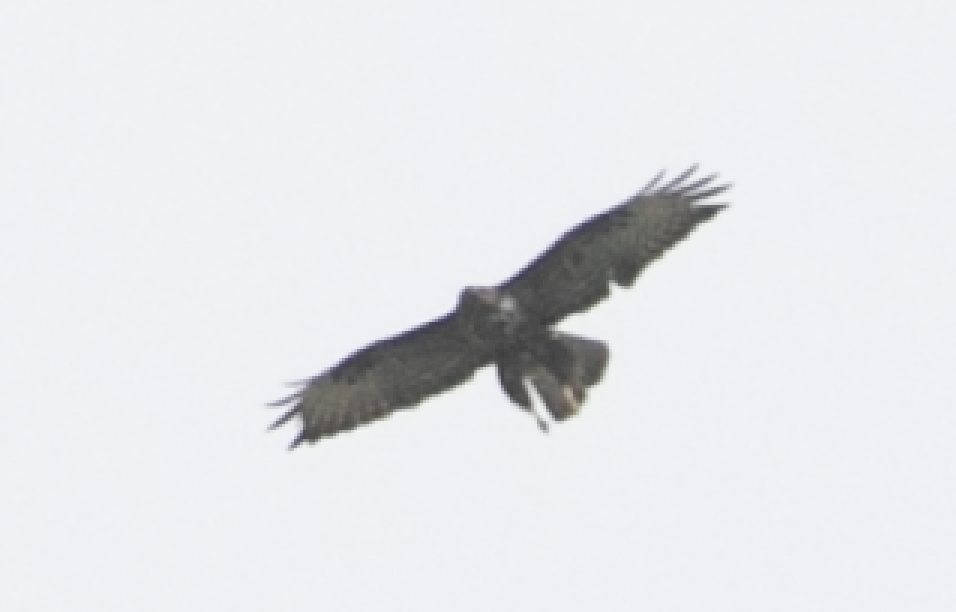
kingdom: Animalia
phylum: Chordata
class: Aves
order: Accipitriformes
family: Accipitridae
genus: Buteo
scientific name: Buteo buteo
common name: Common buzzard
